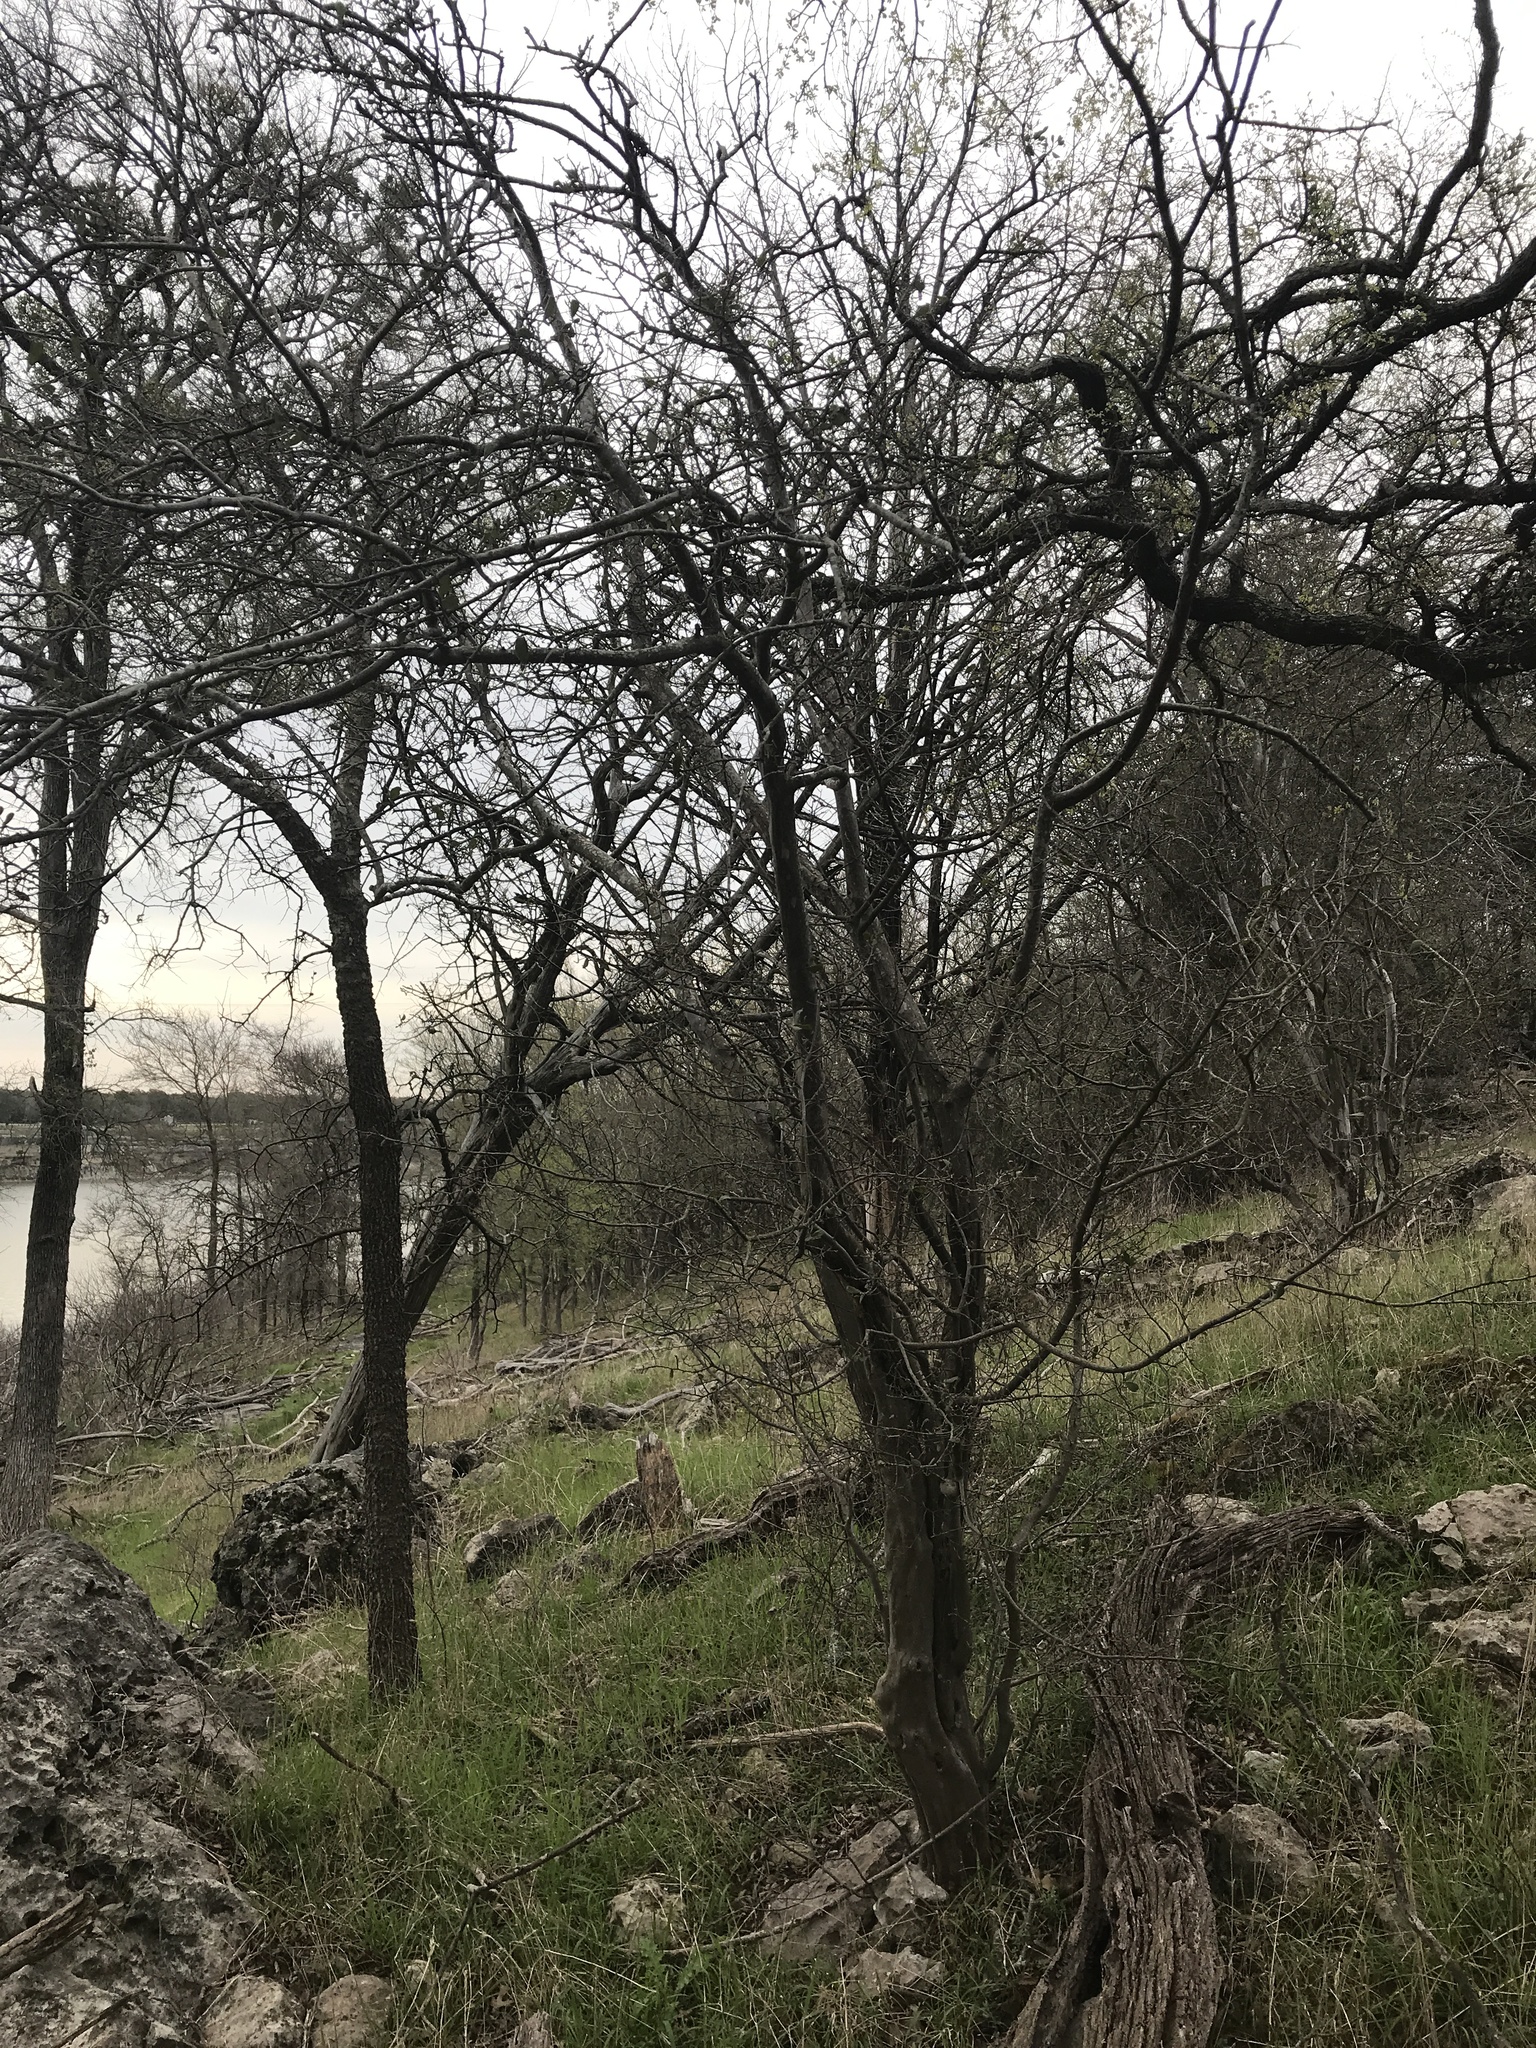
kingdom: Plantae
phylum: Tracheophyta
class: Magnoliopsida
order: Ericales
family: Ebenaceae
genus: Diospyros
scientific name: Diospyros texana
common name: Texas persimmon
